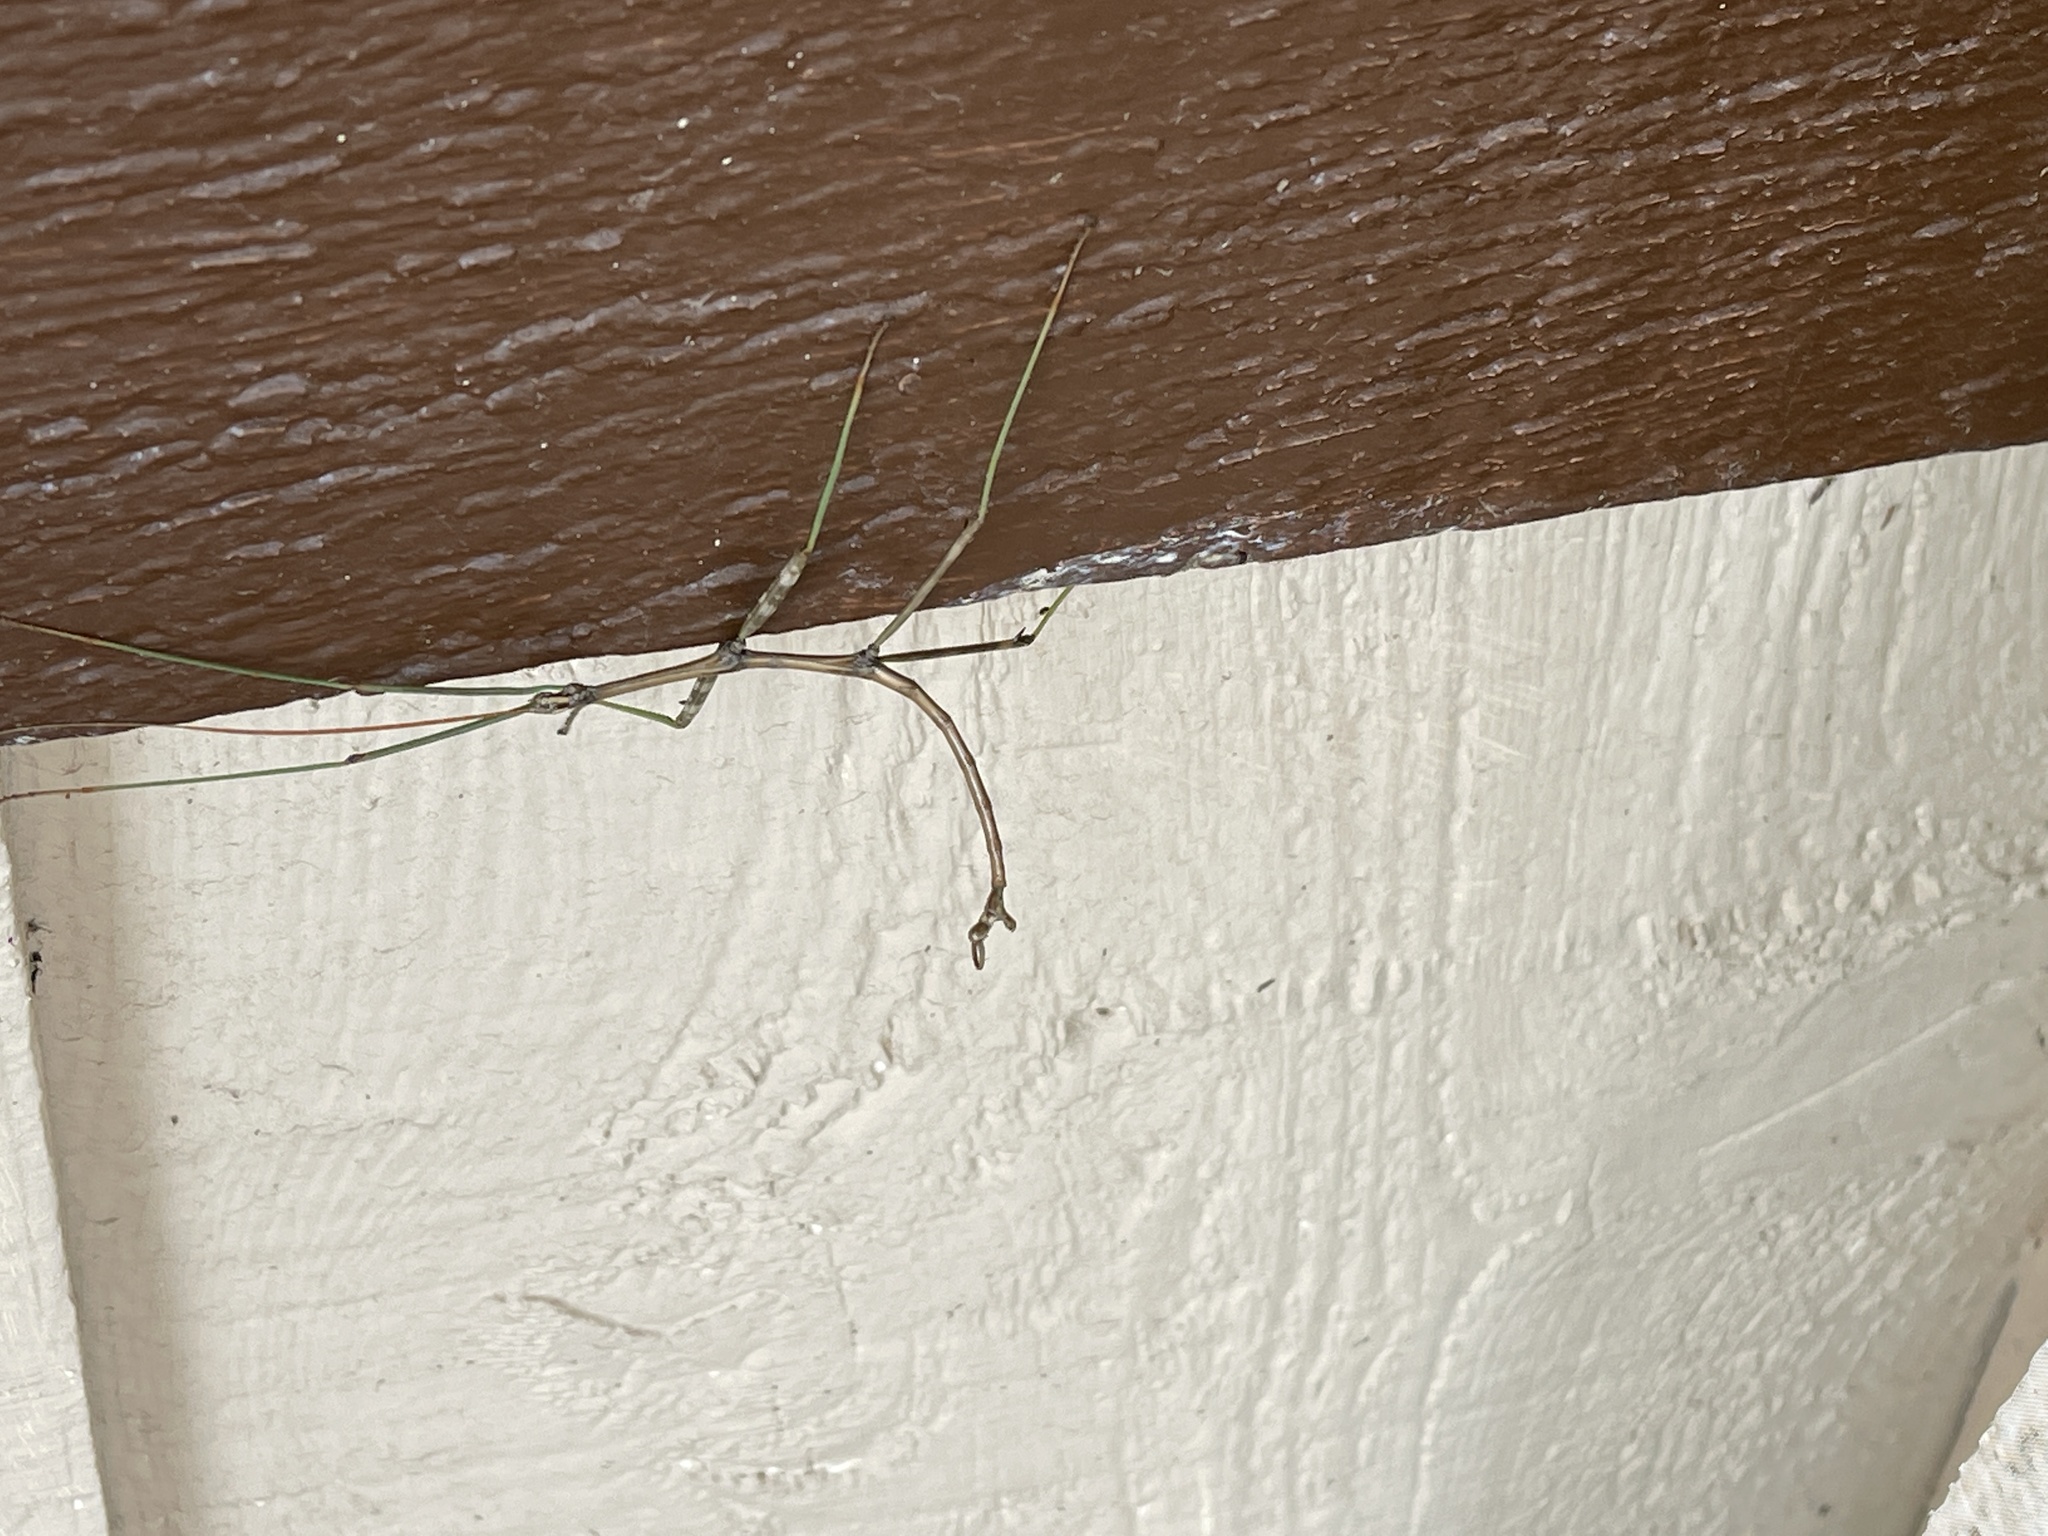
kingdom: Animalia
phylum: Arthropoda
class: Insecta
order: Phasmida
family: Diapheromeridae
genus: Diapheromera
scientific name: Diapheromera femorata
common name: Common american walkingstick
